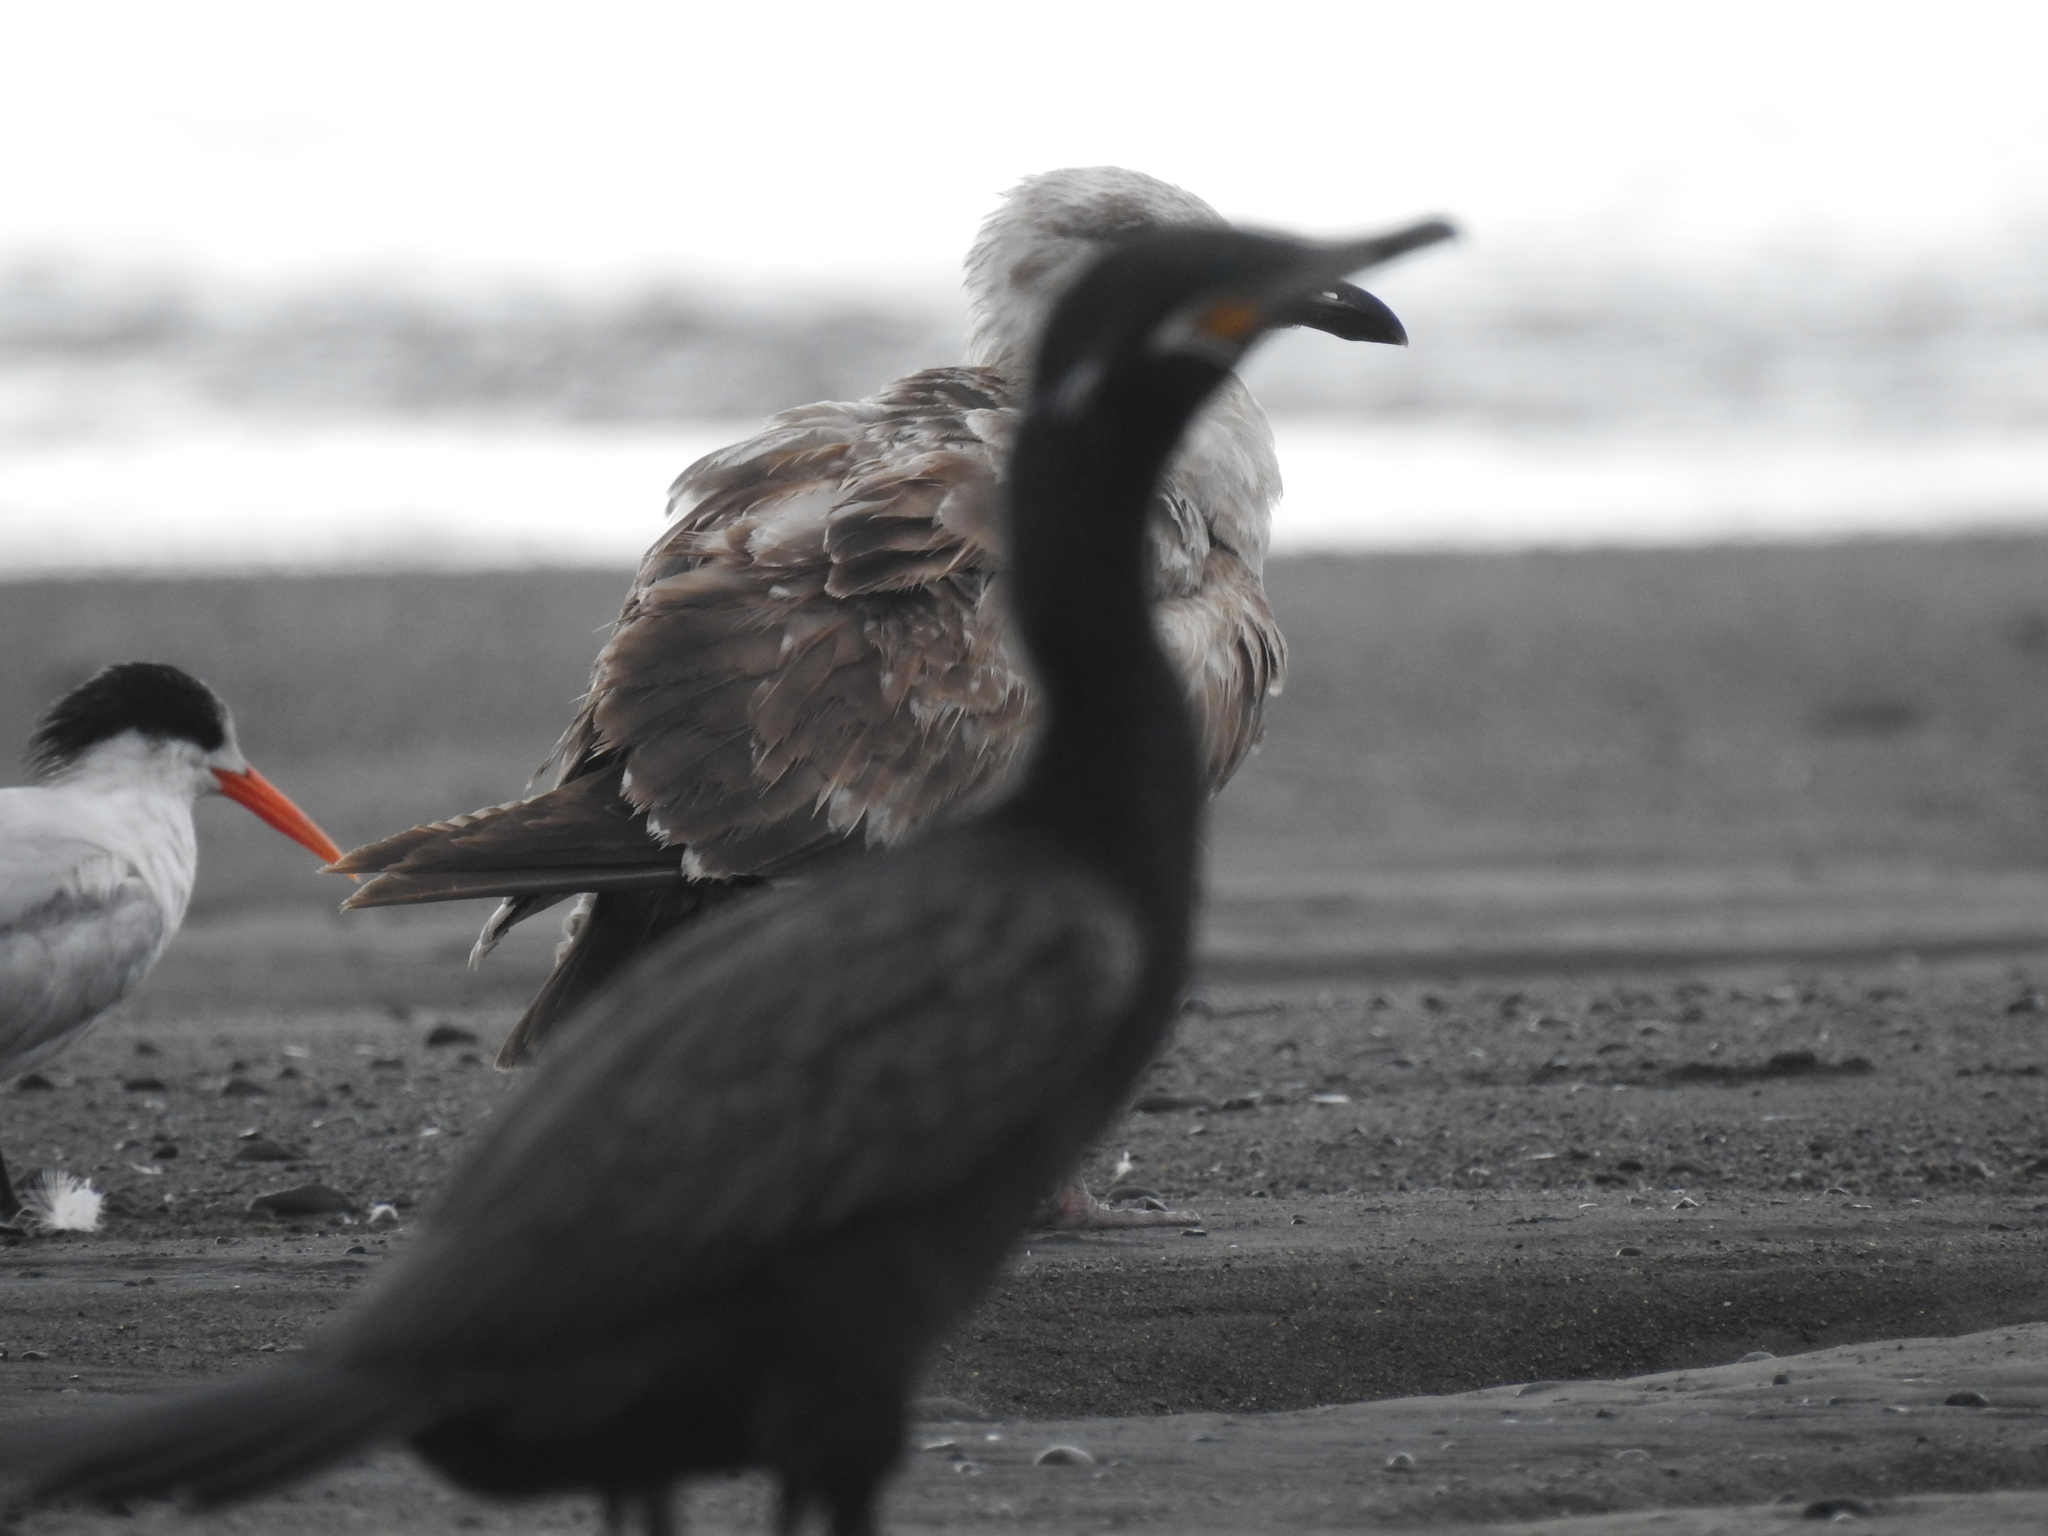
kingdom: Animalia
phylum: Chordata
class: Aves
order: Charadriiformes
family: Laridae
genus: Larus
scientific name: Larus argentatus
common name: Herring gull
